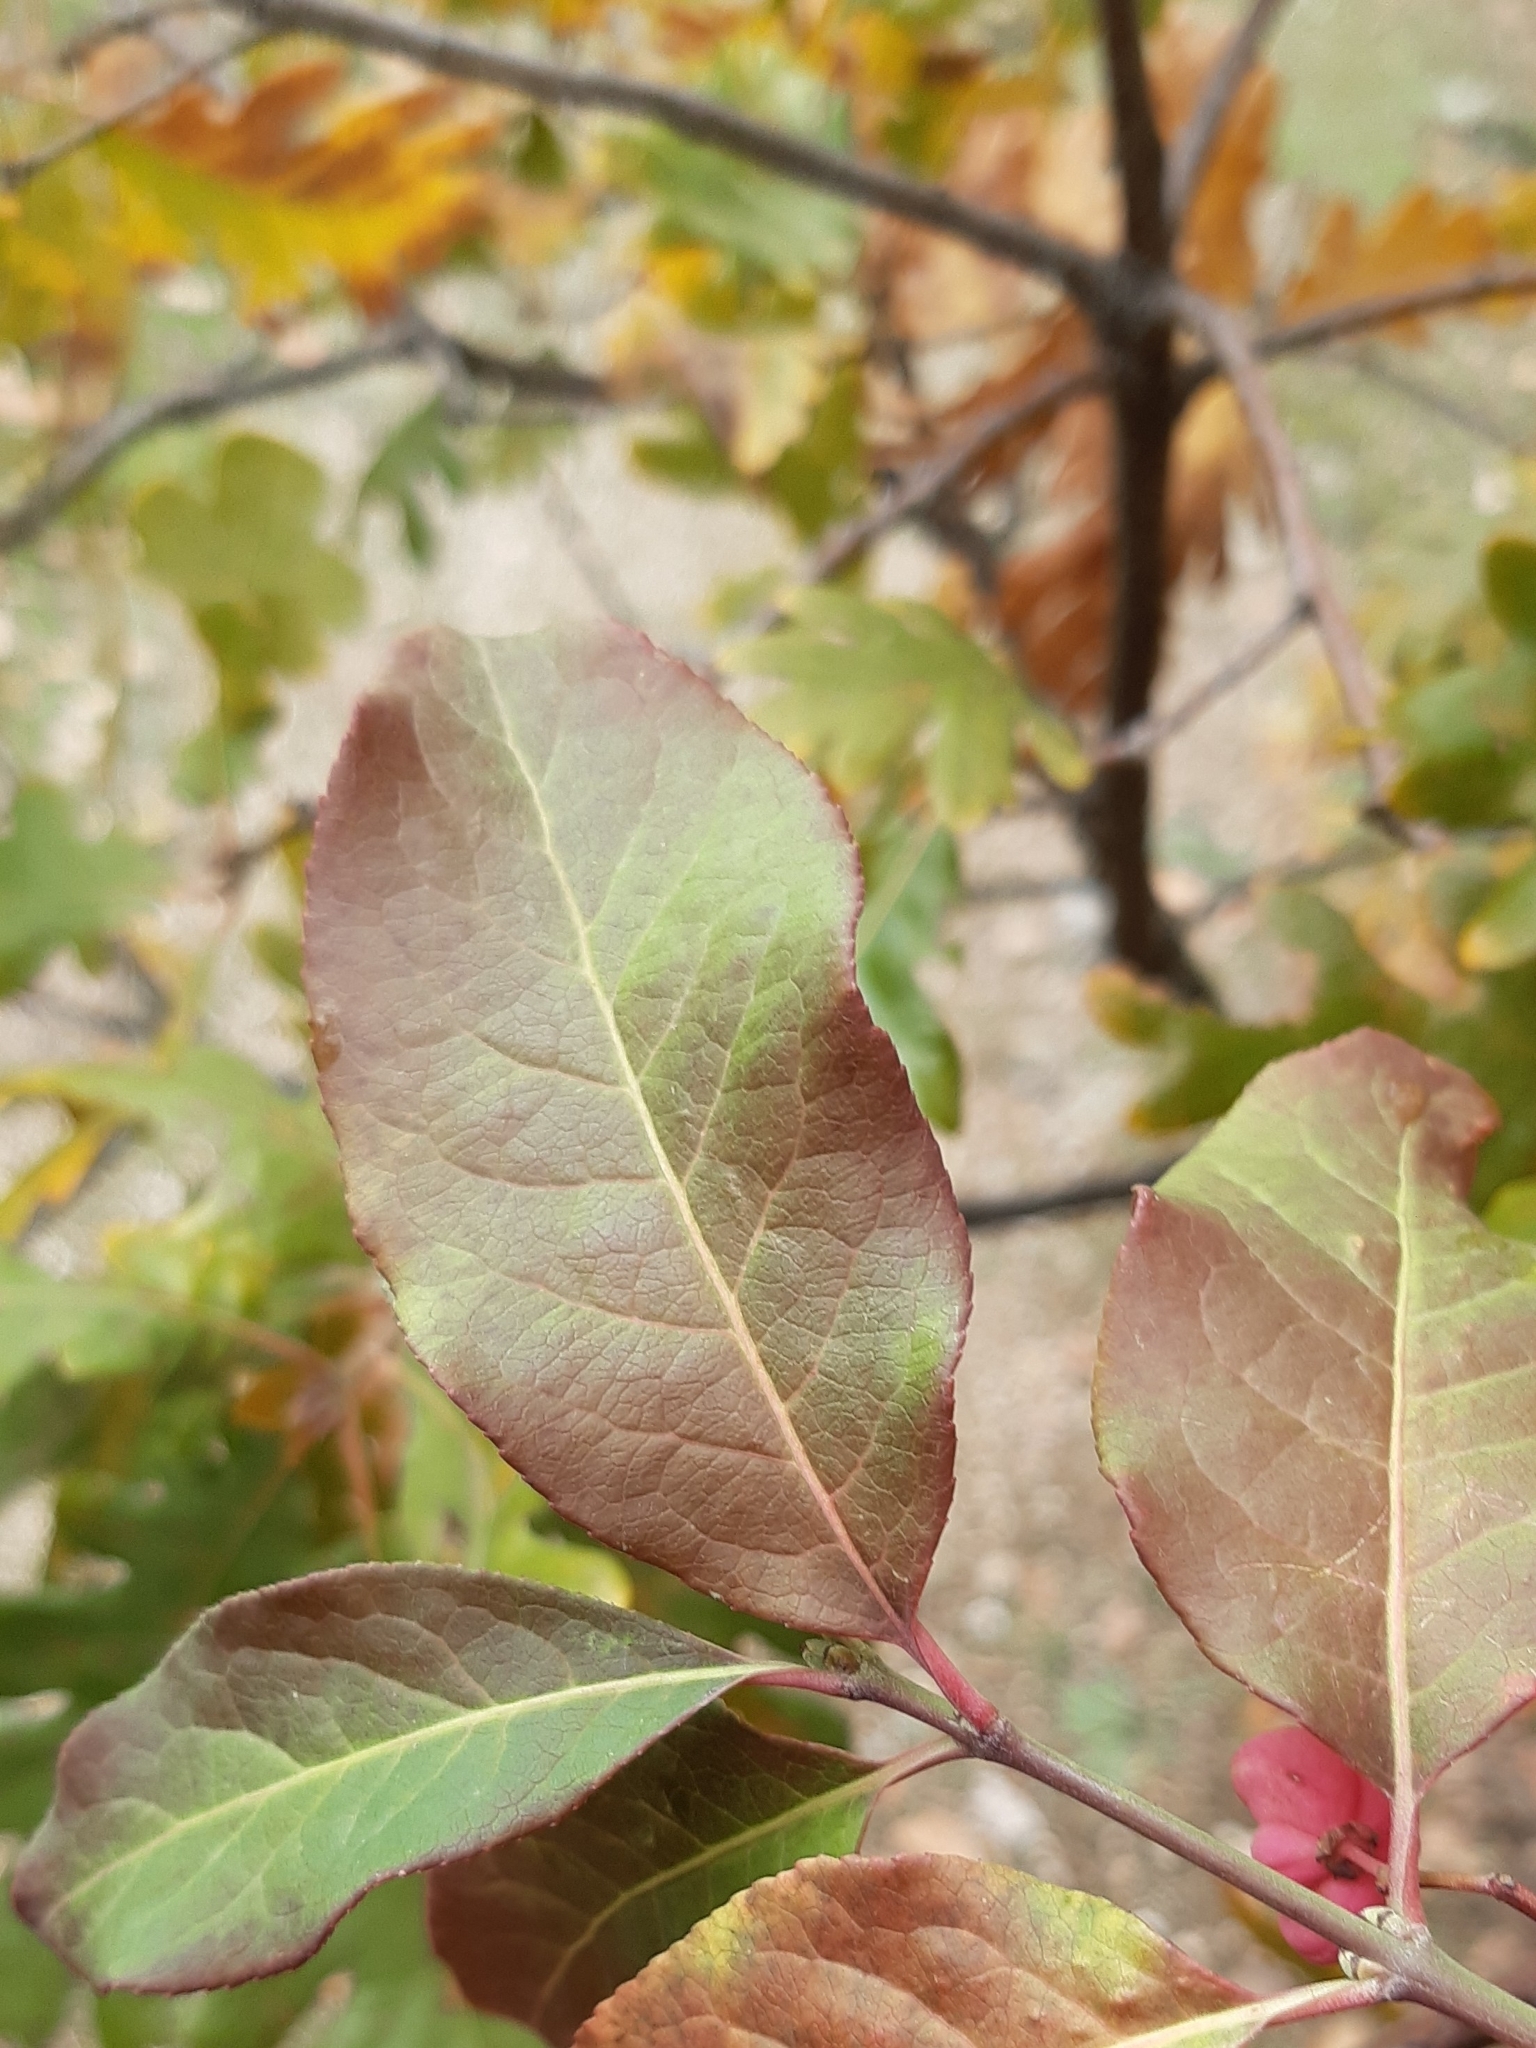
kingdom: Plantae
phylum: Tracheophyta
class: Magnoliopsida
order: Celastrales
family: Celastraceae
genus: Euonymus
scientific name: Euonymus europaeus
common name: Spindle
